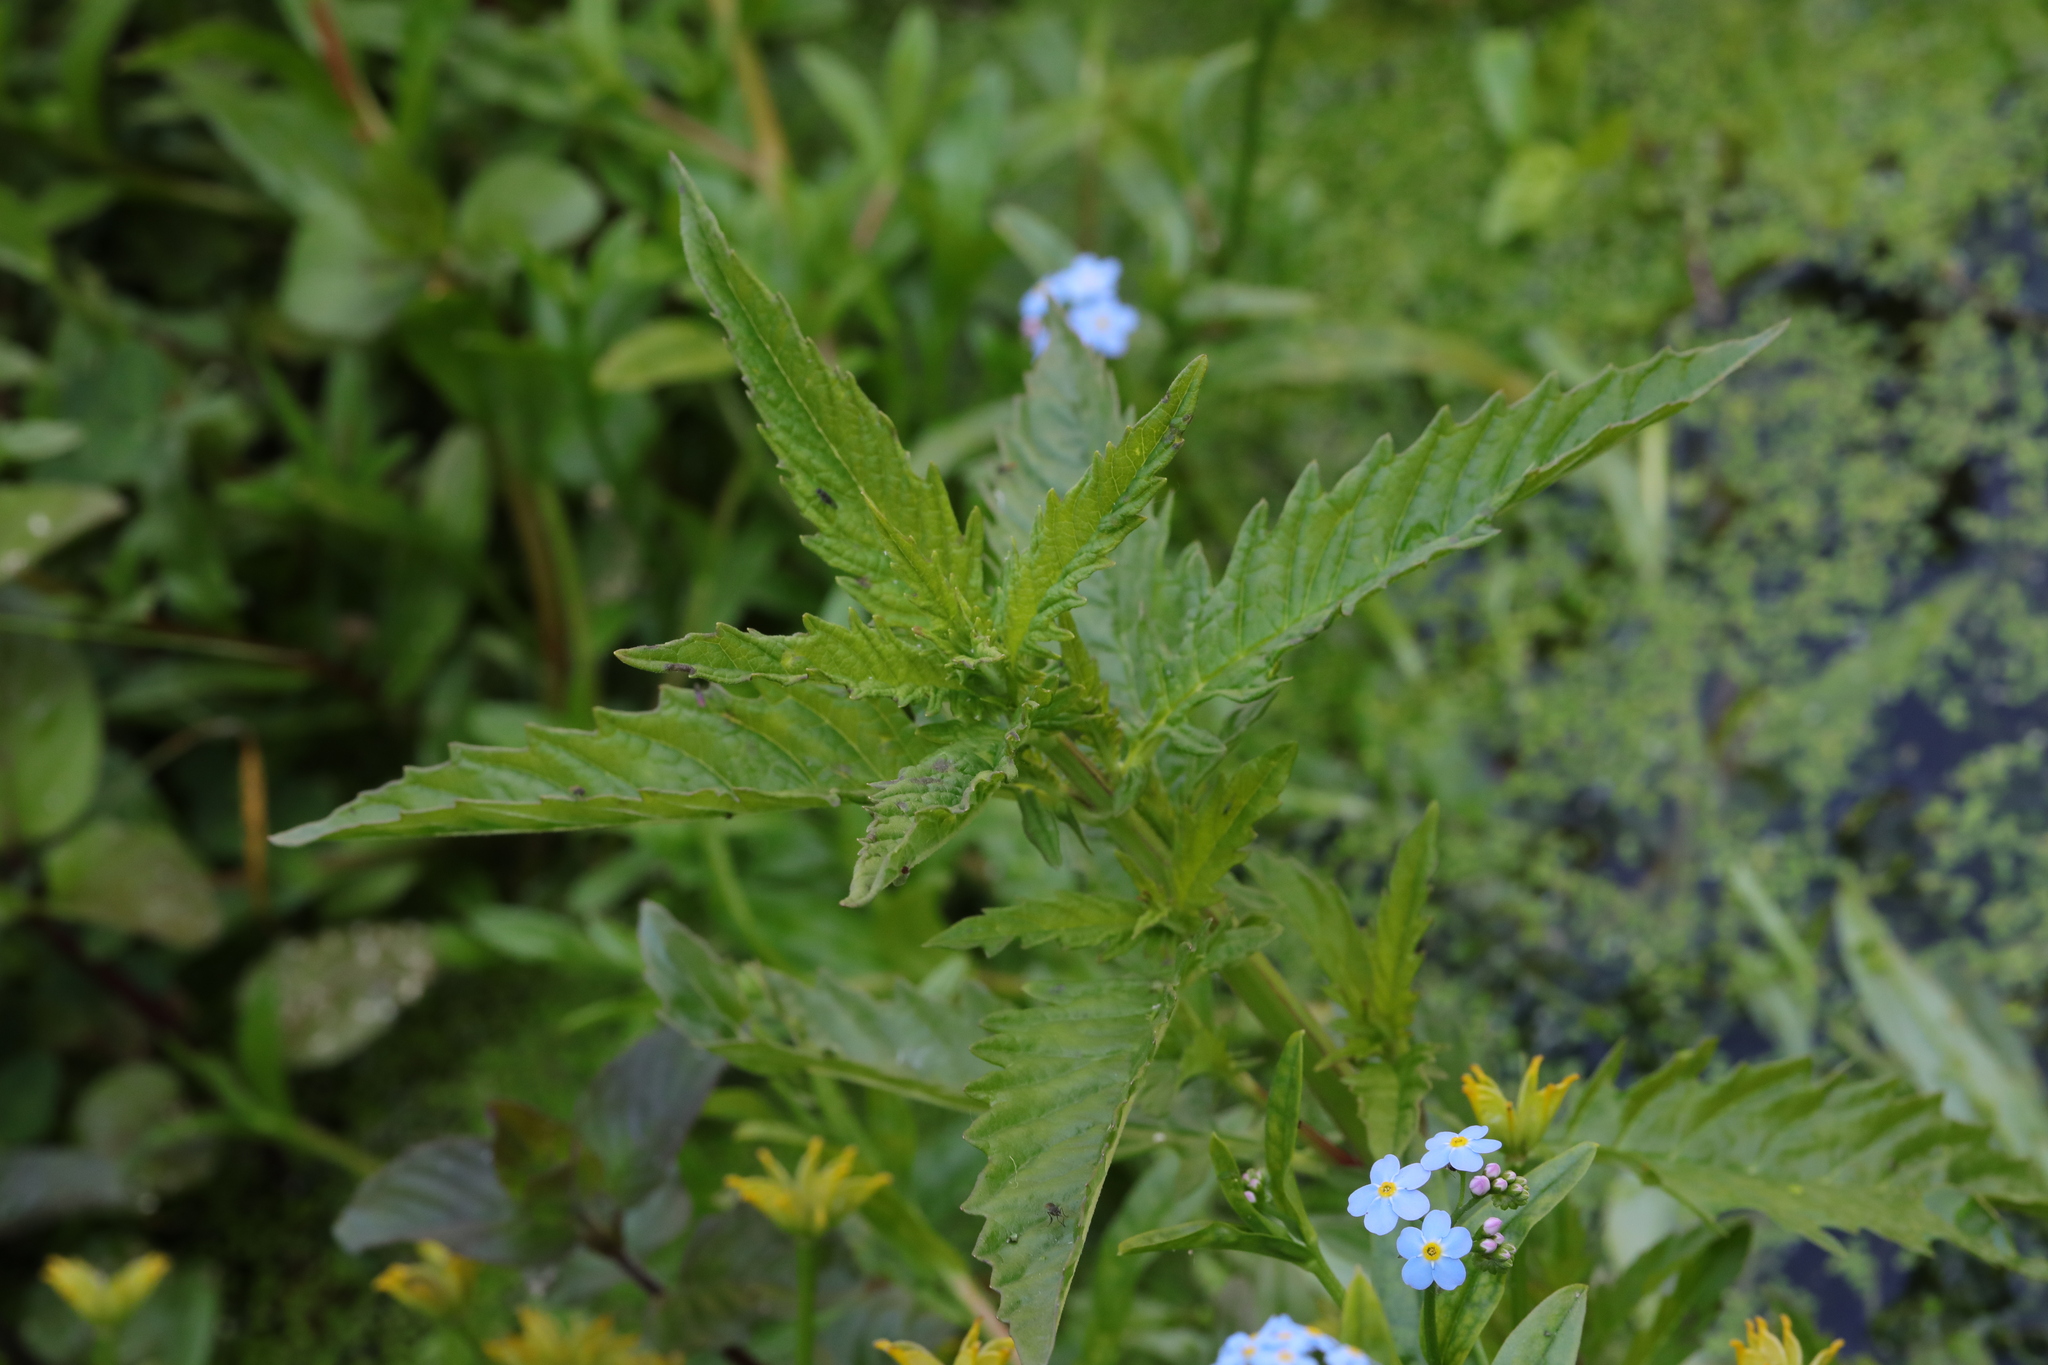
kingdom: Plantae
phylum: Tracheophyta
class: Magnoliopsida
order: Lamiales
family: Lamiaceae
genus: Lycopus
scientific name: Lycopus europaeus
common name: European bugleweed
